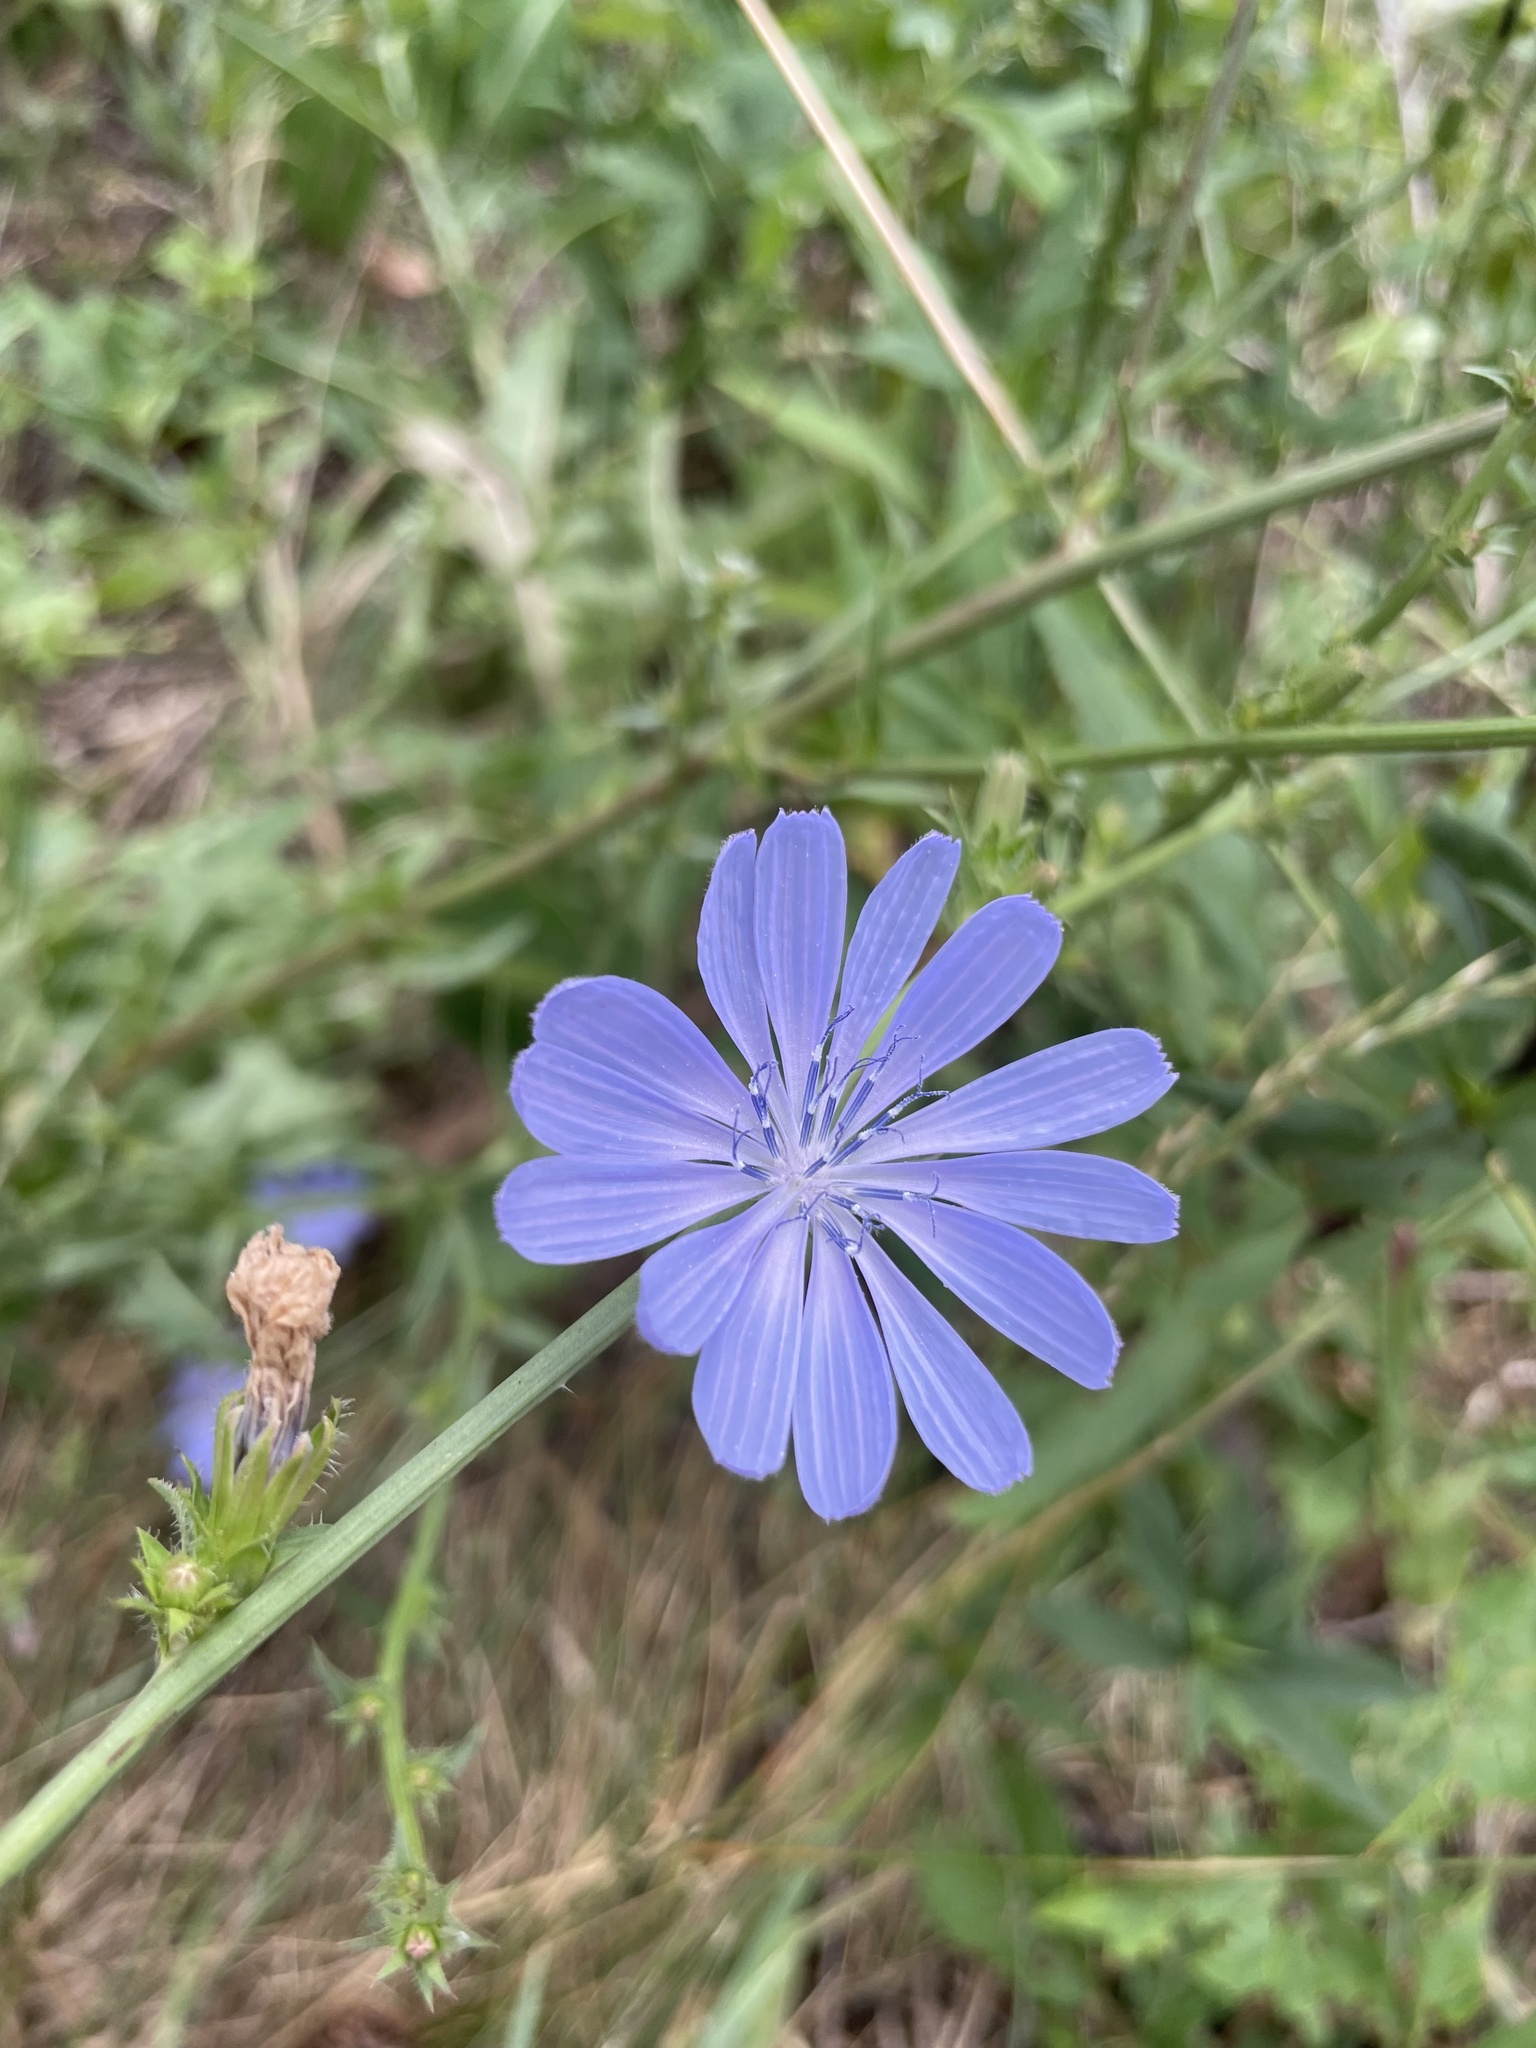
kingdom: Plantae
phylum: Tracheophyta
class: Magnoliopsida
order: Asterales
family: Asteraceae
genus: Cichorium
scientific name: Cichorium intybus
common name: Chicory
